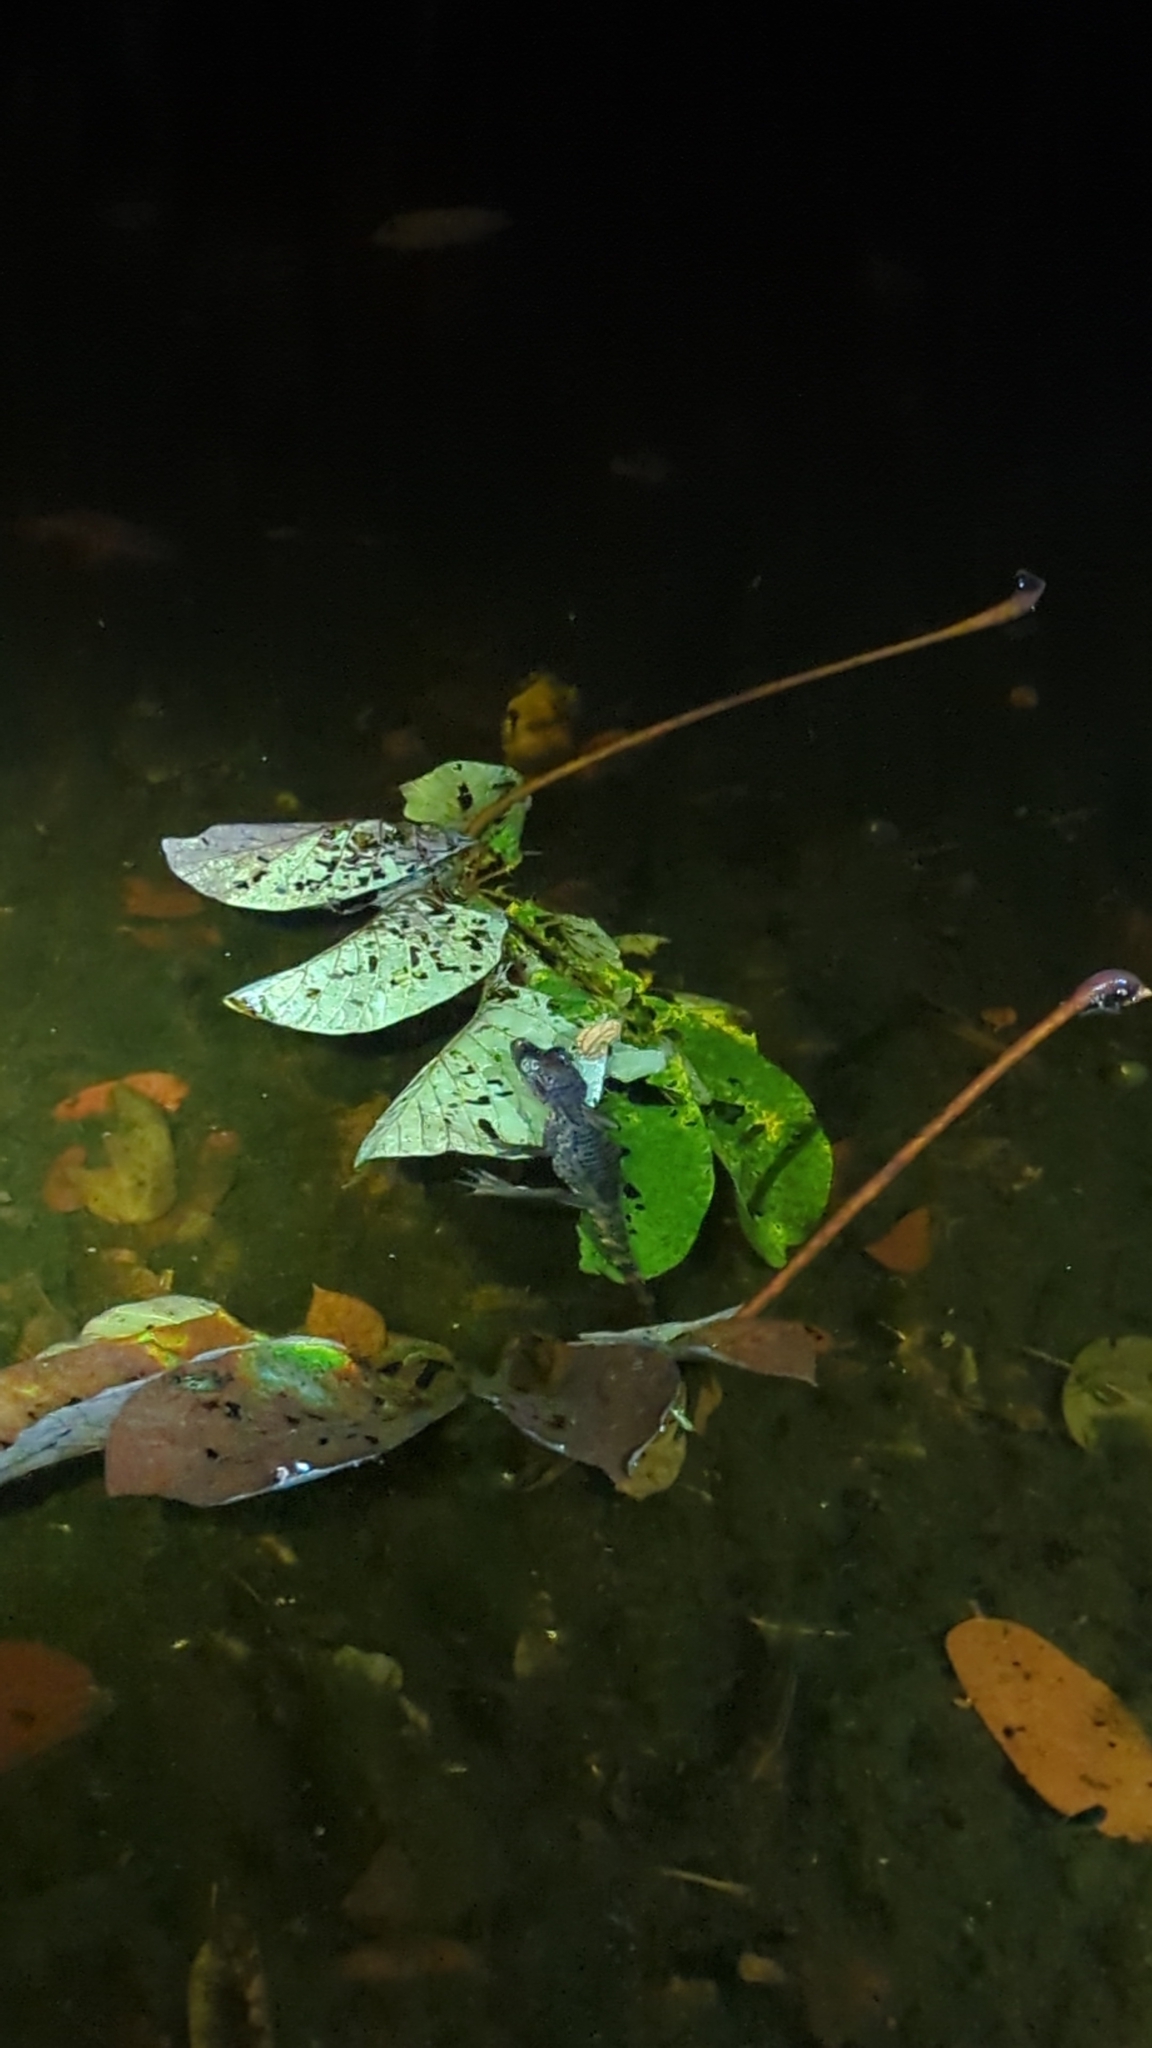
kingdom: Animalia
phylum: Chordata
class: Crocodylia
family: Alligatoridae
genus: Caiman
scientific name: Caiman crocodilus
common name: Common caiman
